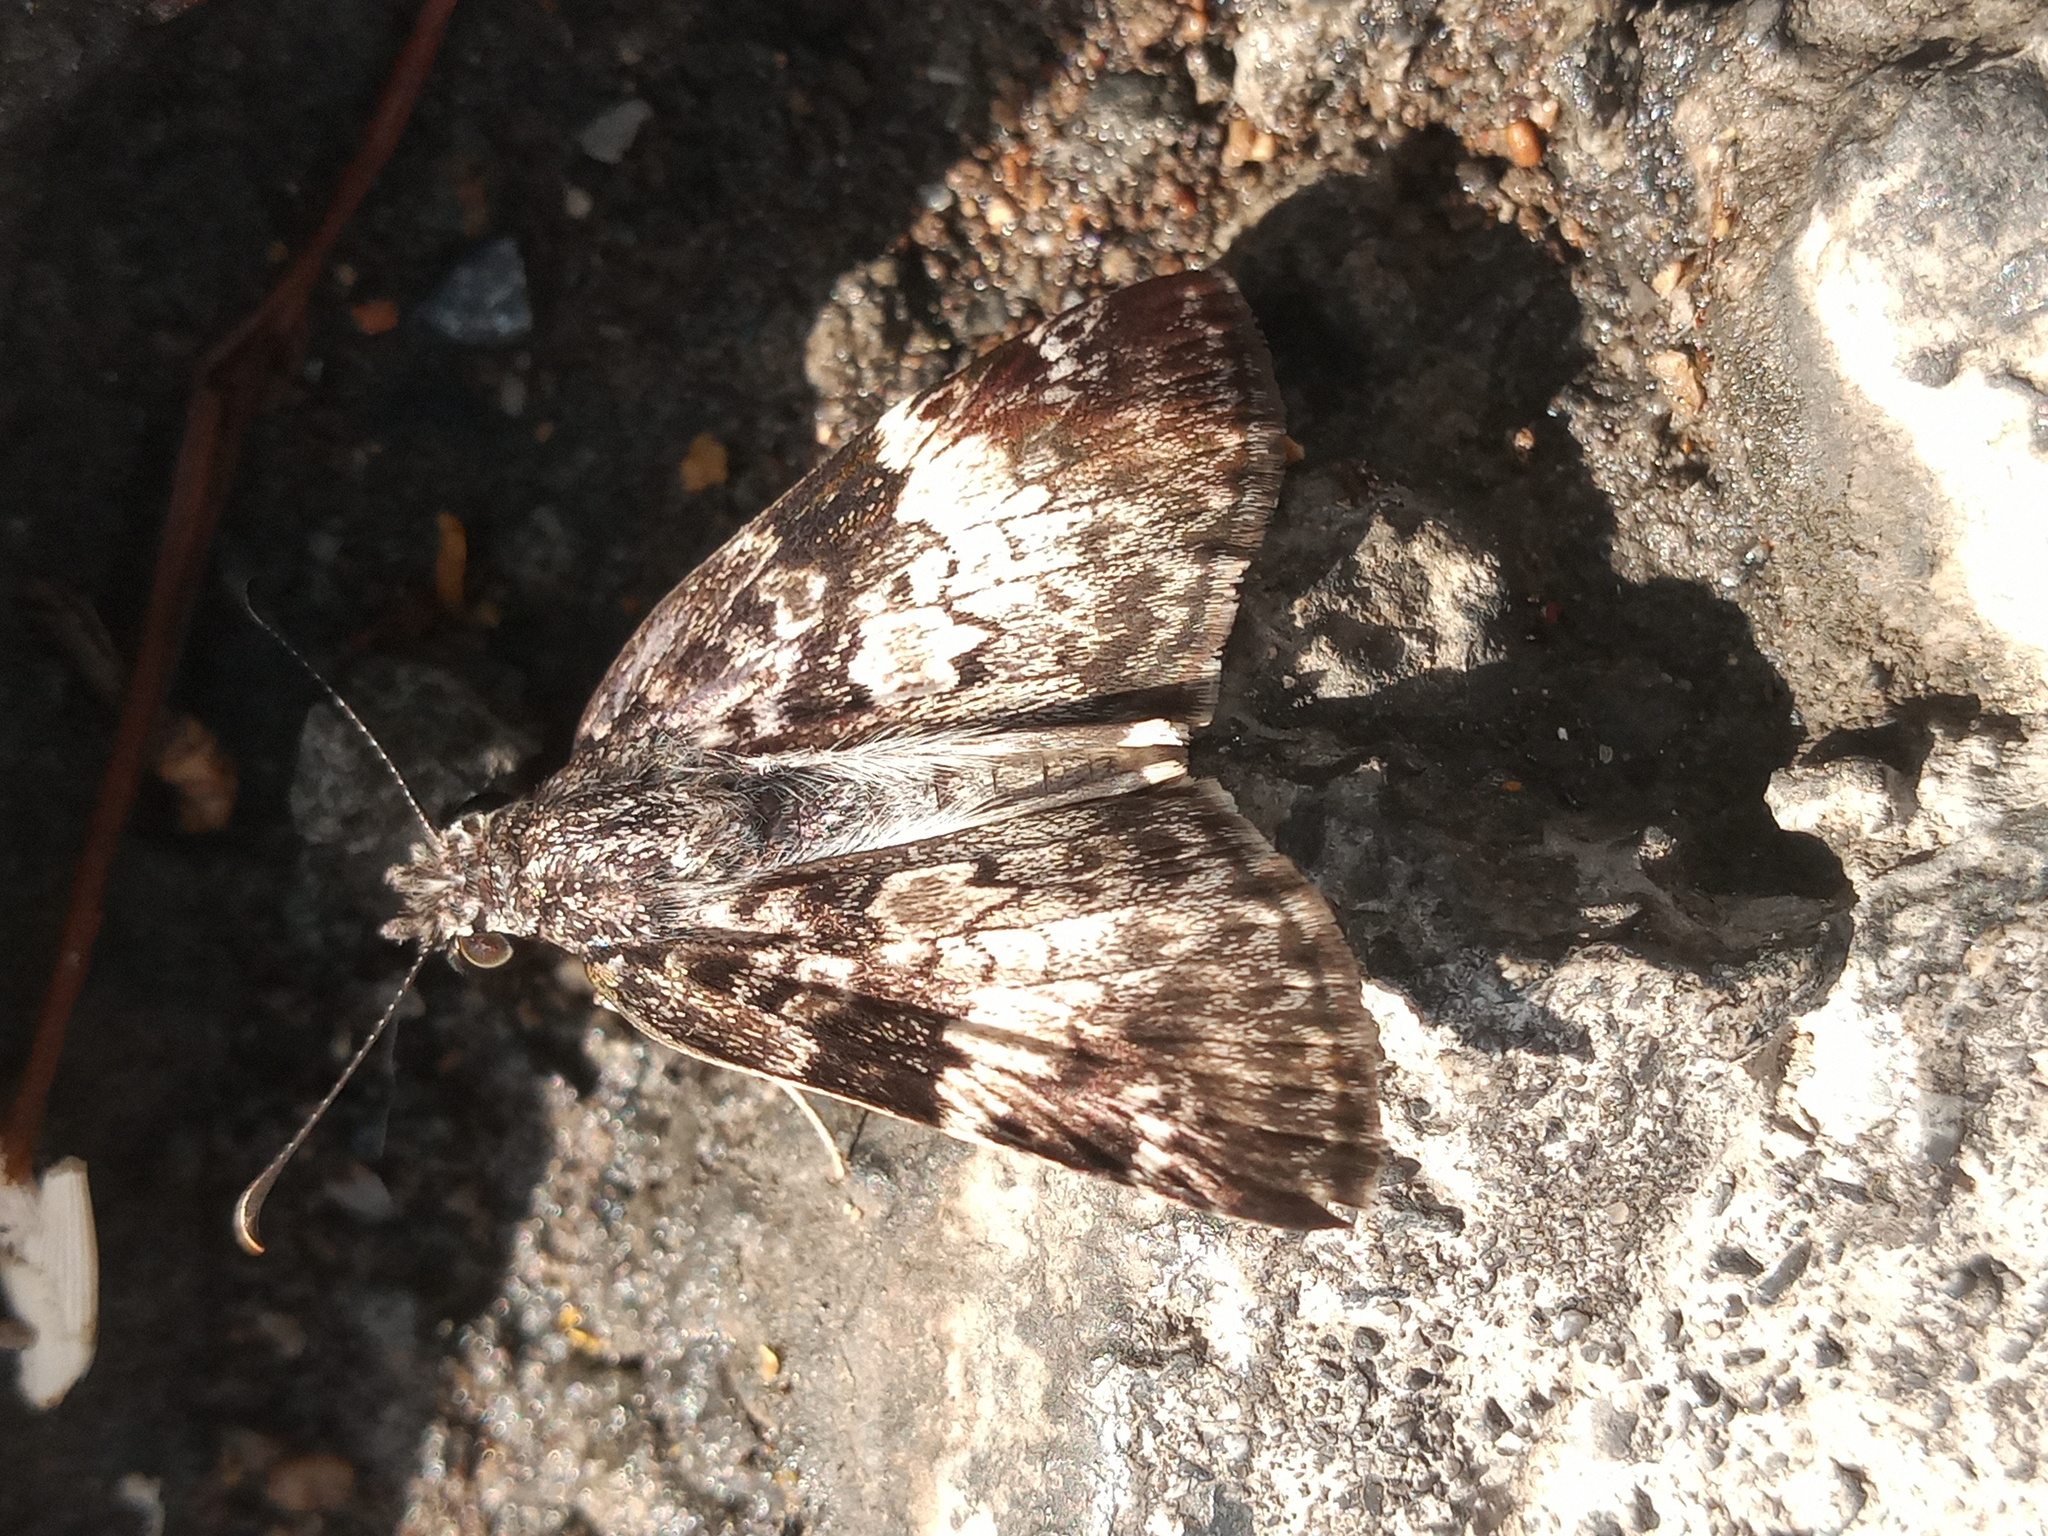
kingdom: Animalia
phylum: Arthropoda
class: Insecta
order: Lepidoptera
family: Hesperiidae
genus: Chiothion
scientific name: Chiothion georgina
